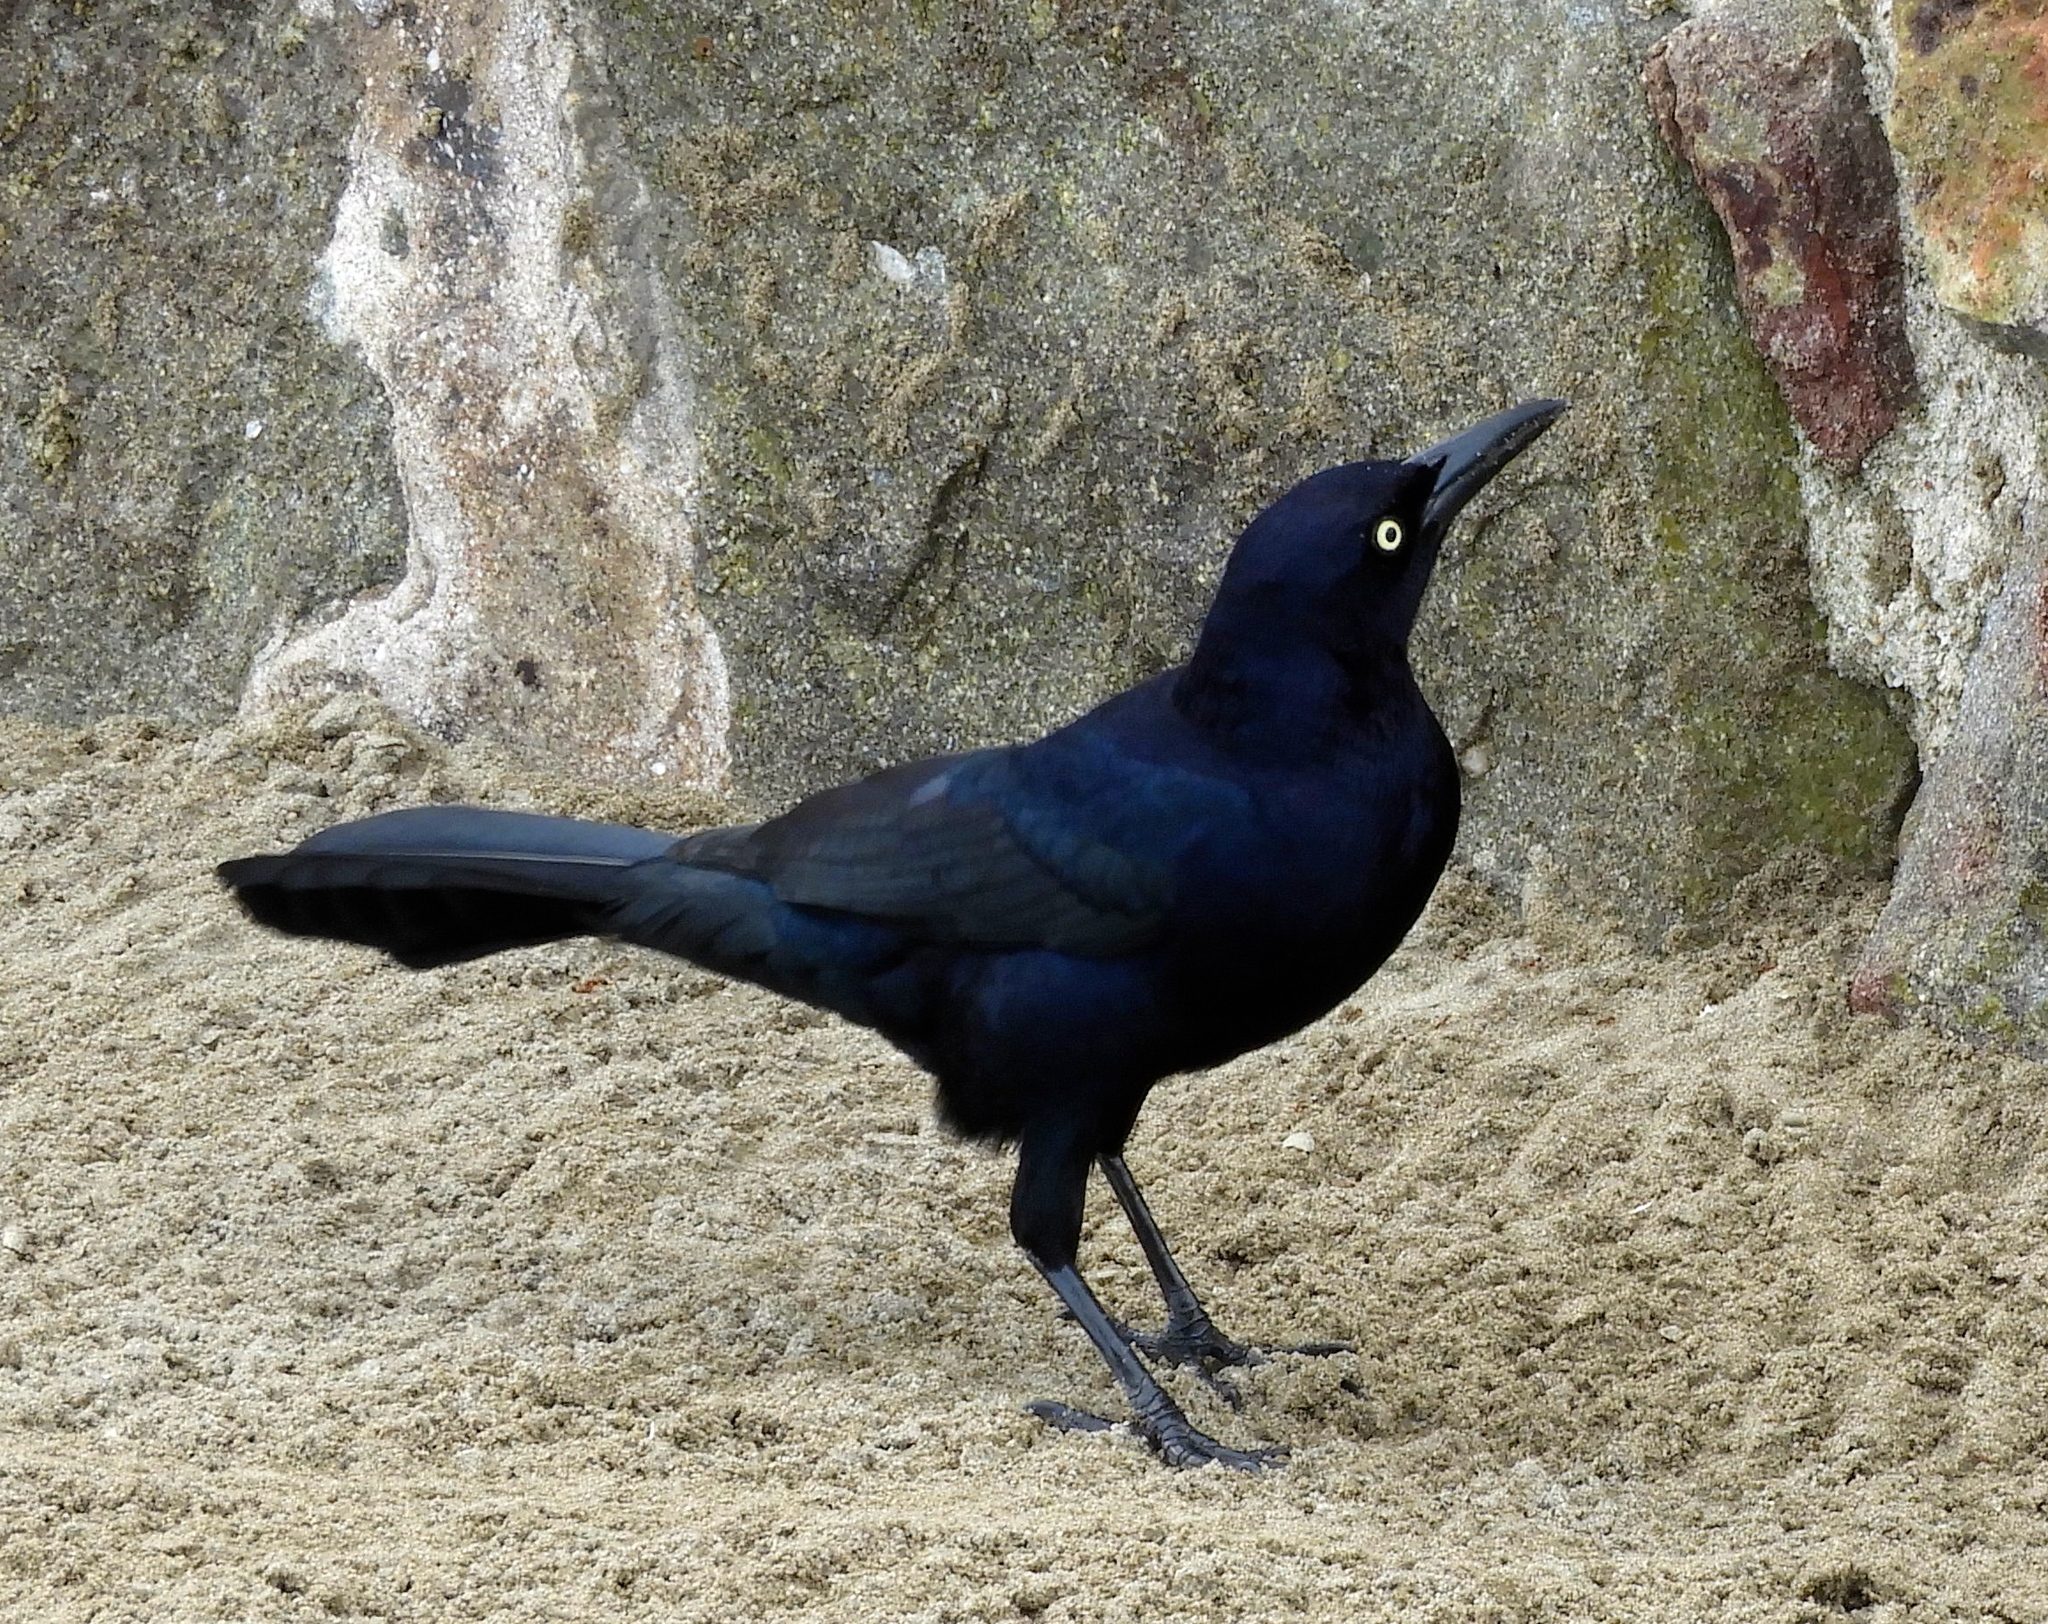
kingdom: Animalia
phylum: Chordata
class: Aves
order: Passeriformes
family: Icteridae
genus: Quiscalus
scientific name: Quiscalus mexicanus
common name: Great-tailed grackle
